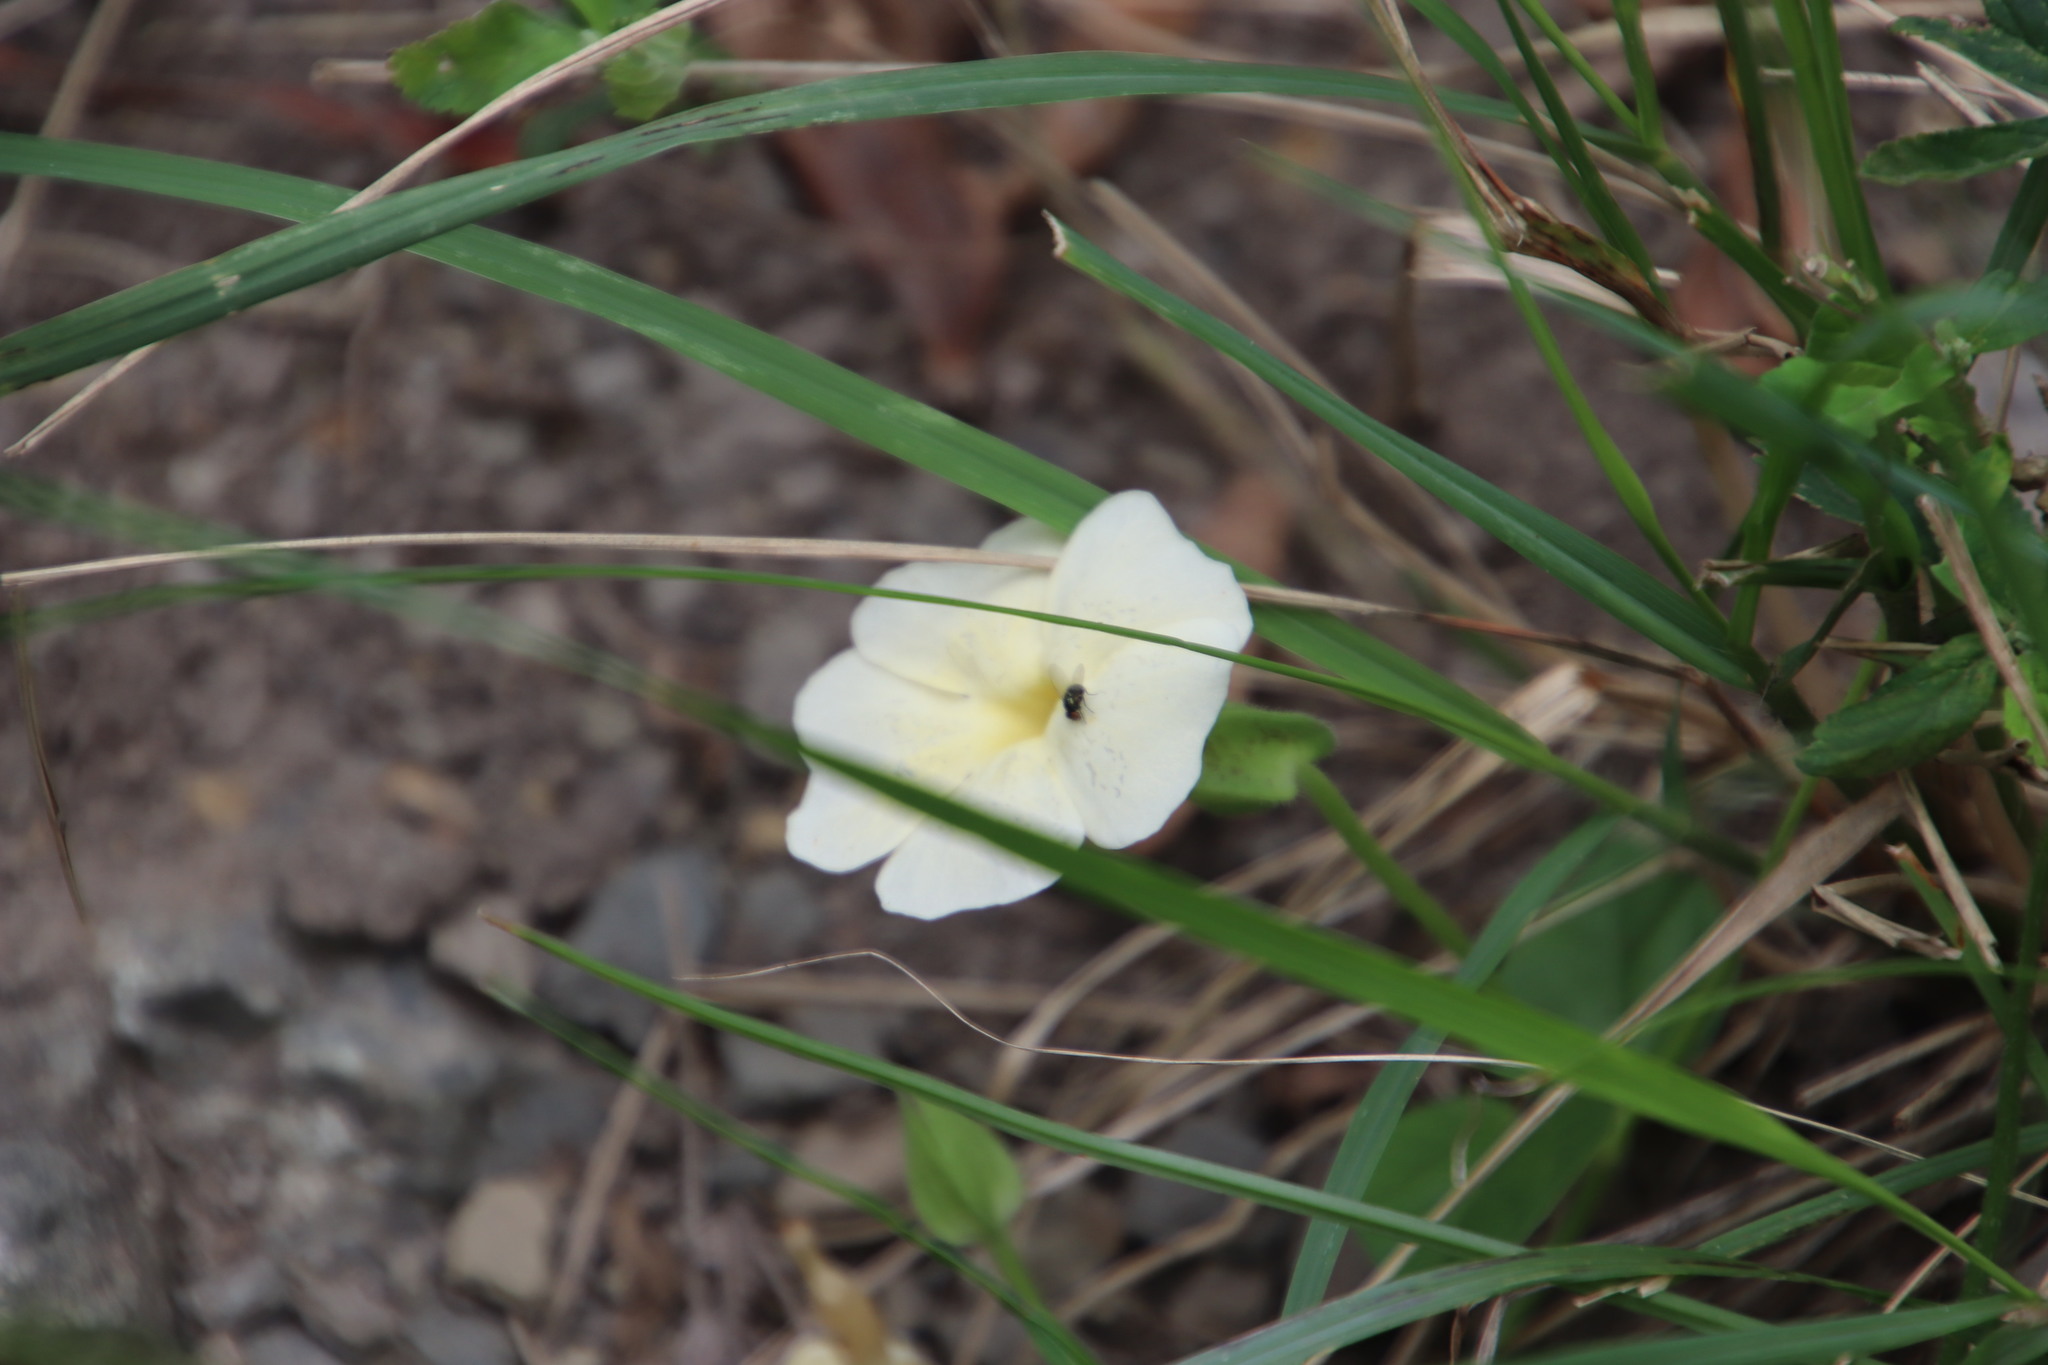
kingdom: Plantae
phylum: Tracheophyta
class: Magnoliopsida
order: Lamiales
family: Acanthaceae
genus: Thunbergia
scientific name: Thunbergia dregeana
